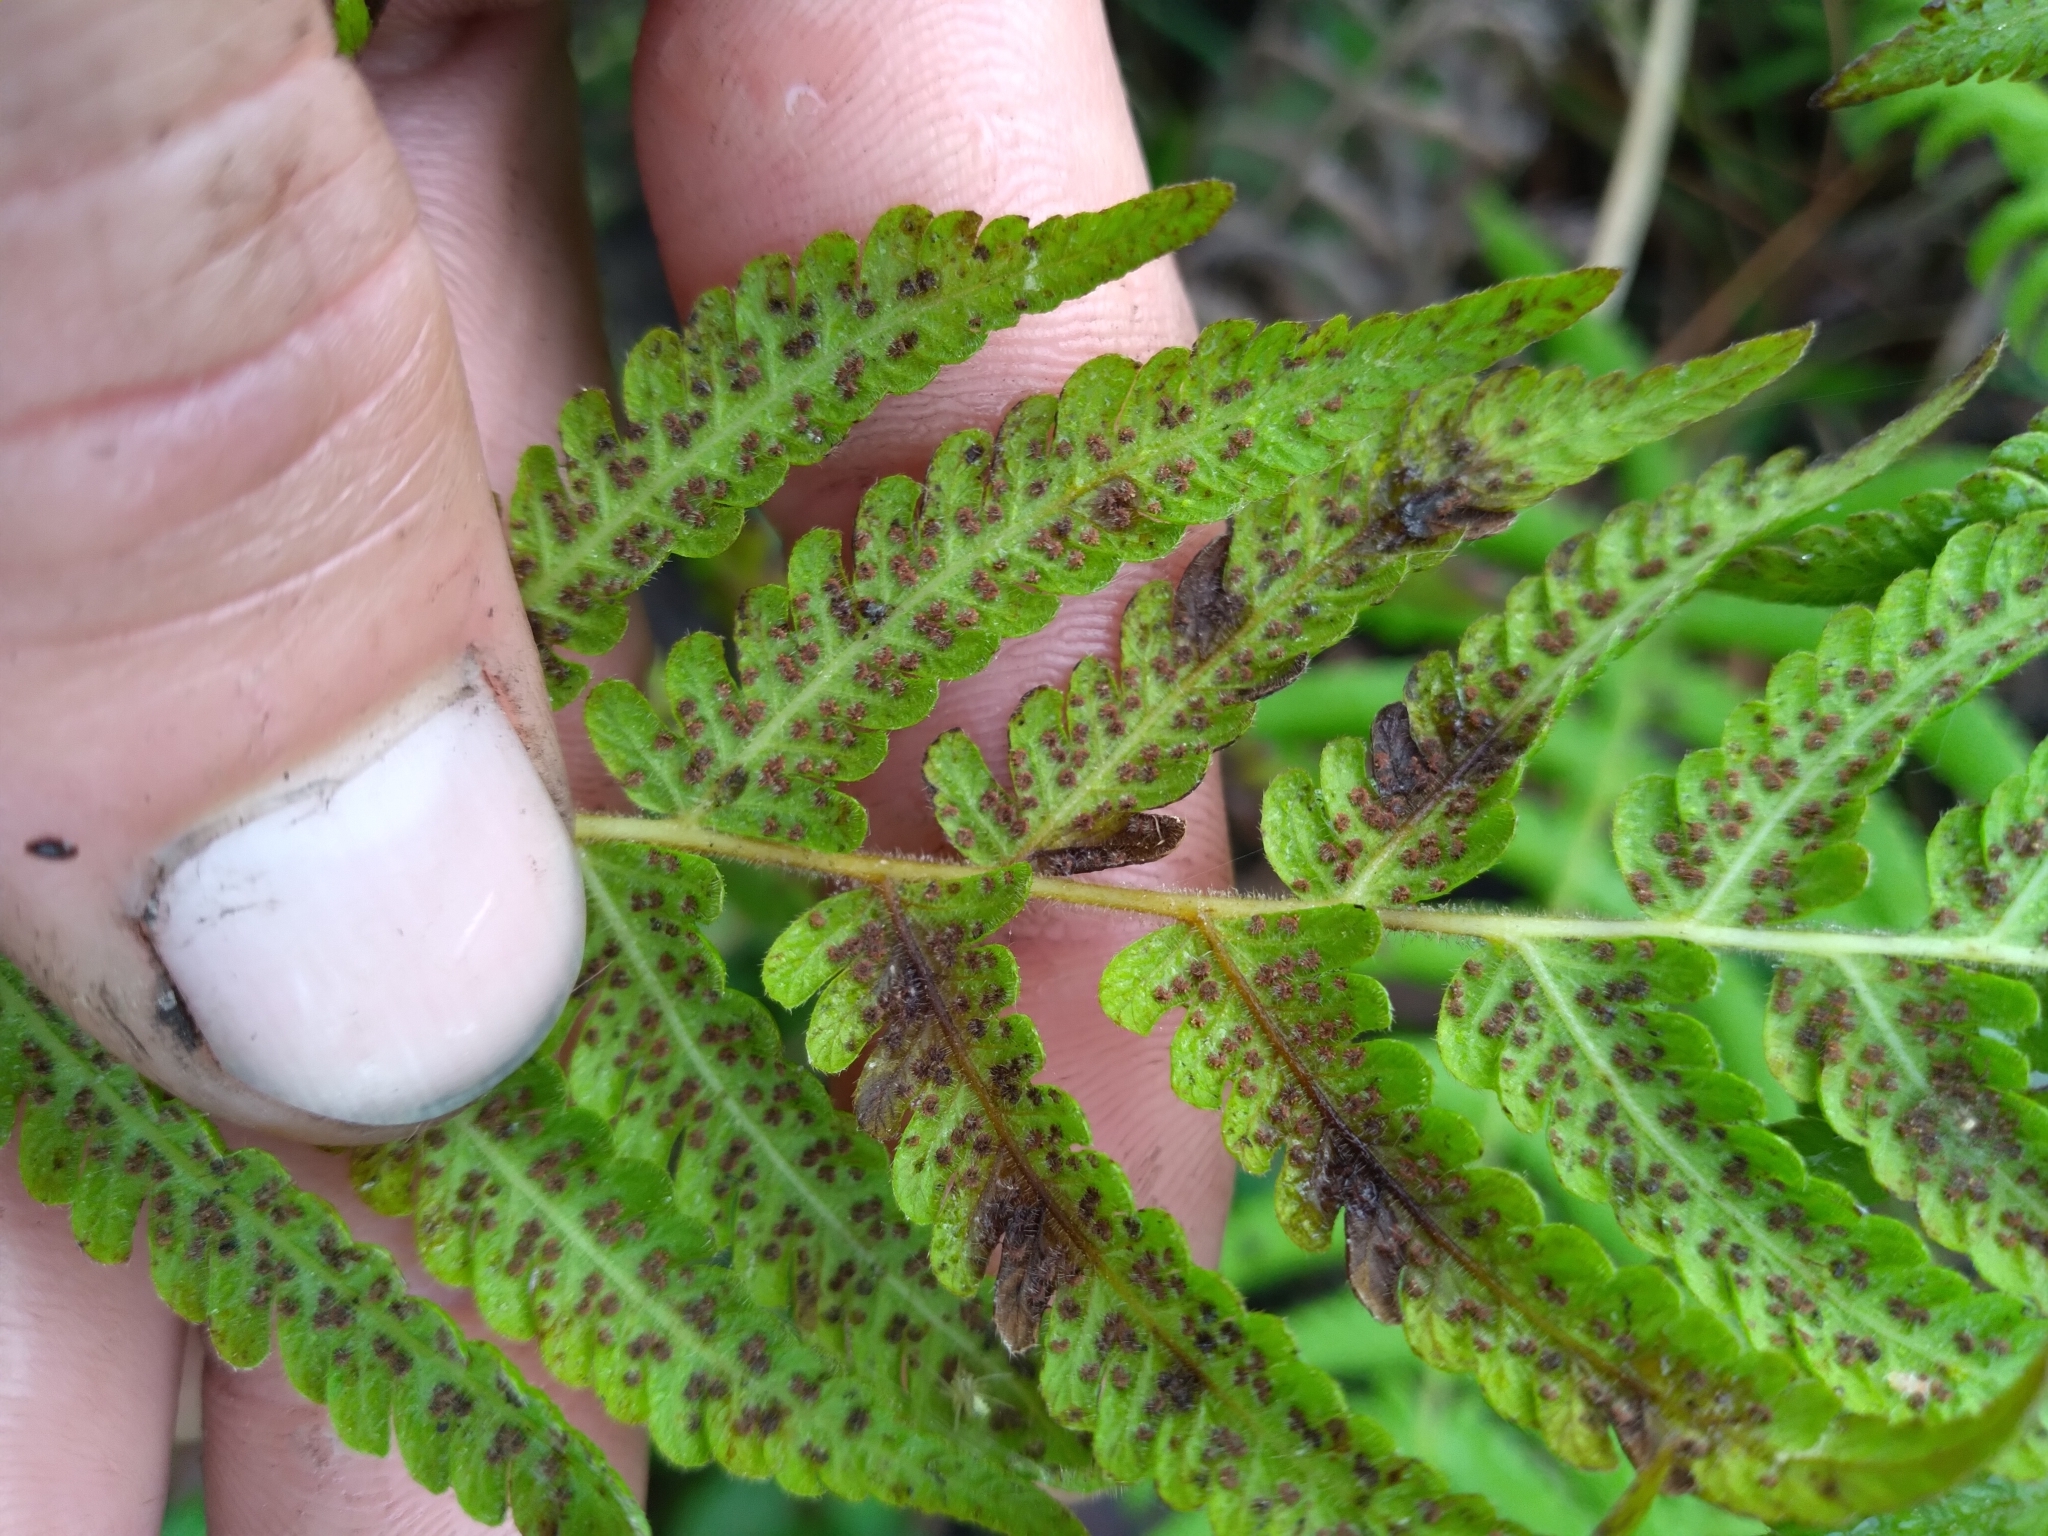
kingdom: Plantae
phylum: Tracheophyta
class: Polypodiopsida
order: Polypodiales
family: Thelypteridaceae
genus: Pelazoneuron
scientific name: Pelazoneuron kunthii
